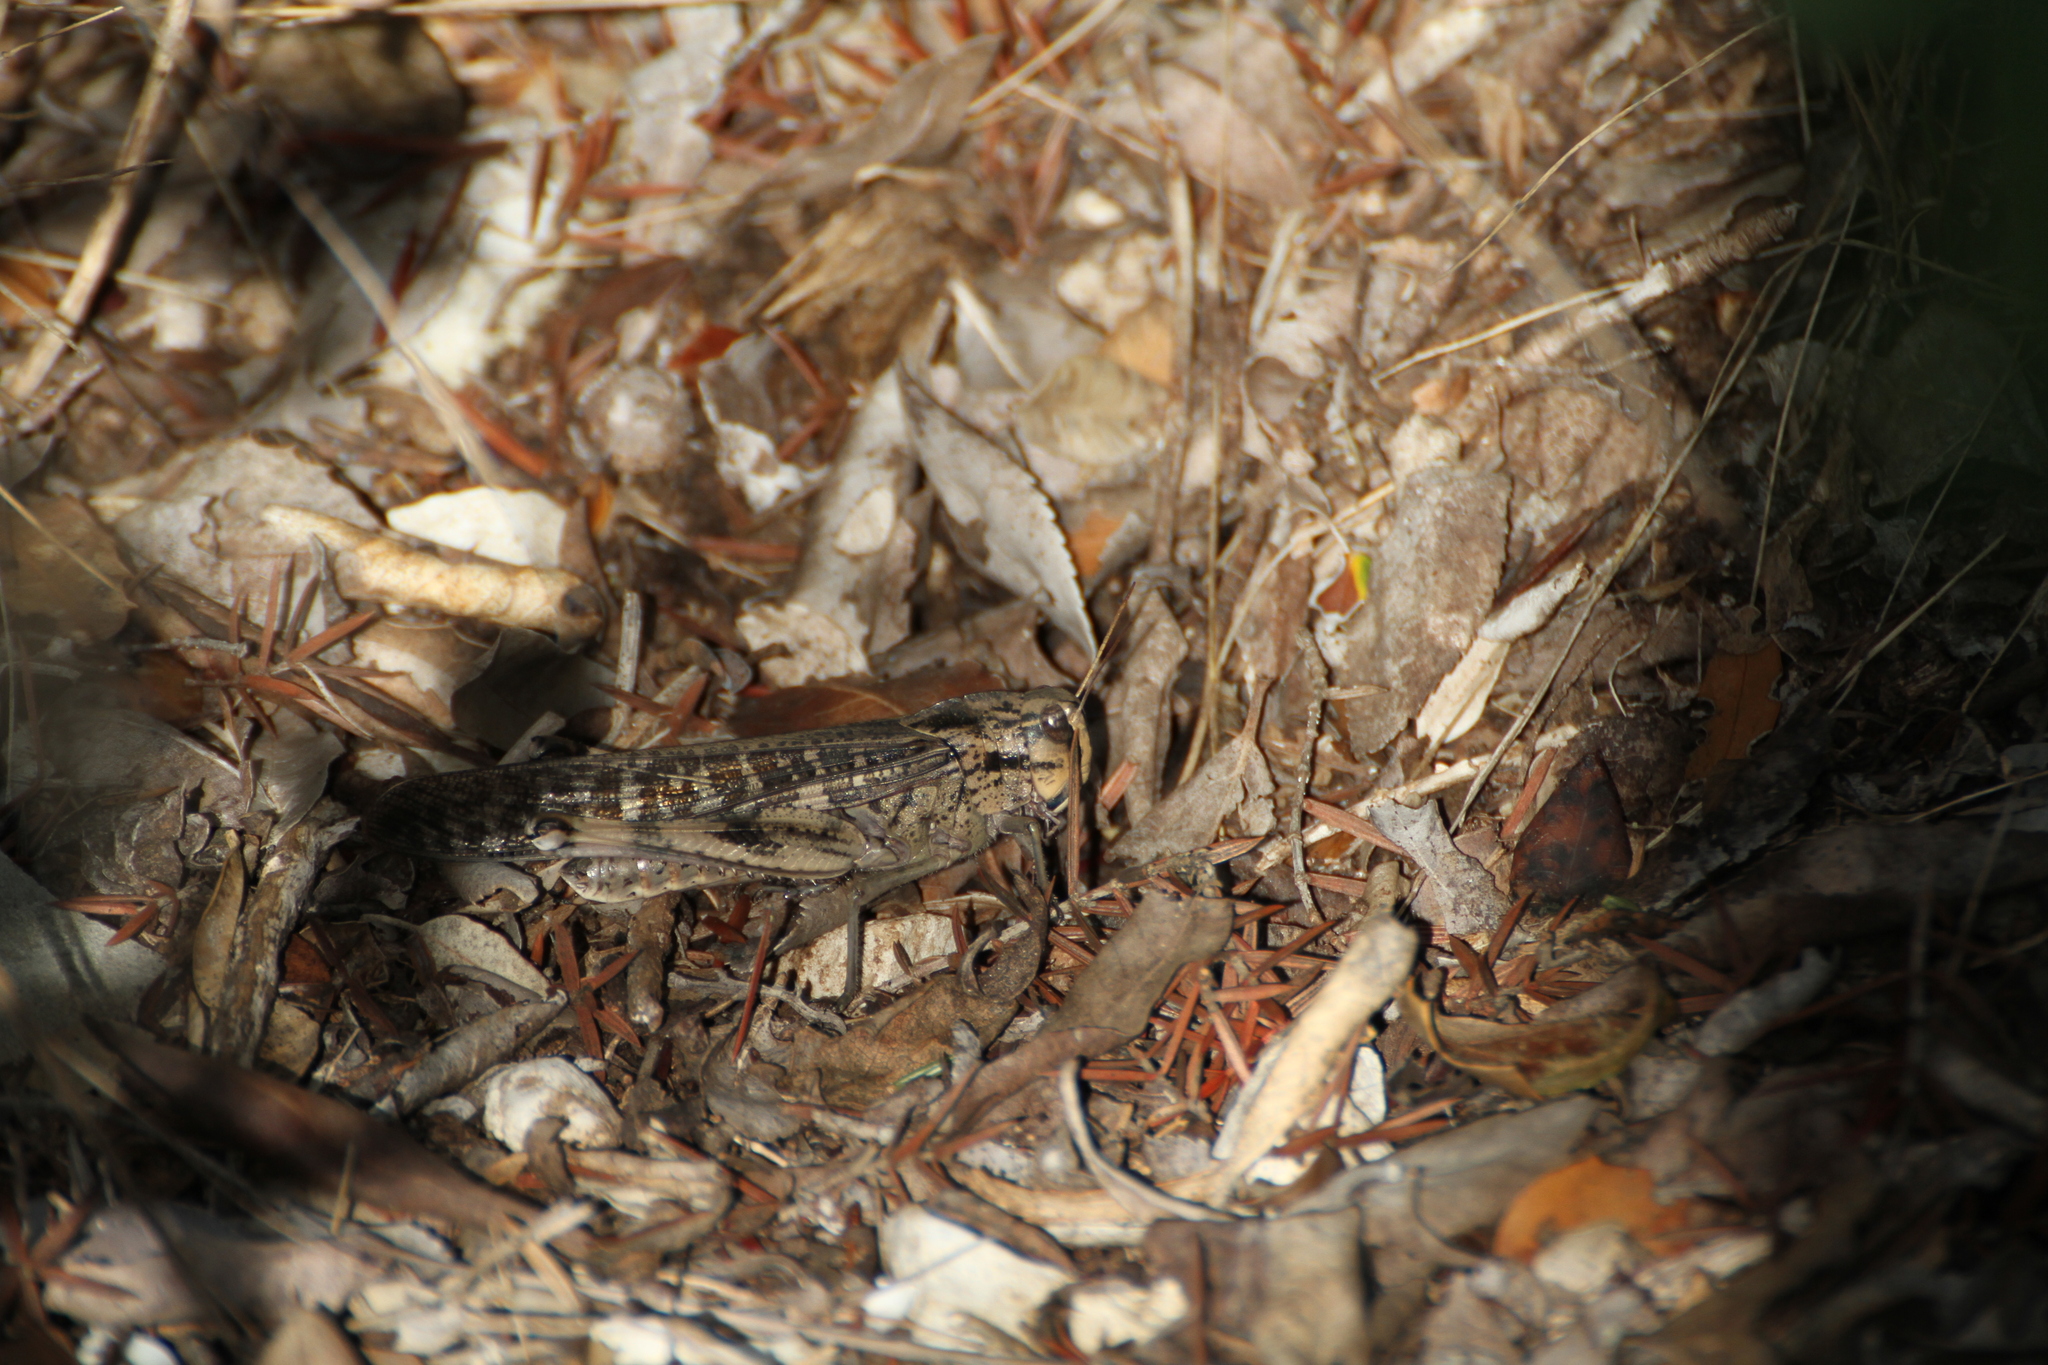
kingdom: Animalia
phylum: Arthropoda
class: Insecta
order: Orthoptera
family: Acrididae
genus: Locusta
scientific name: Locusta migratoria
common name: Migratory locust
